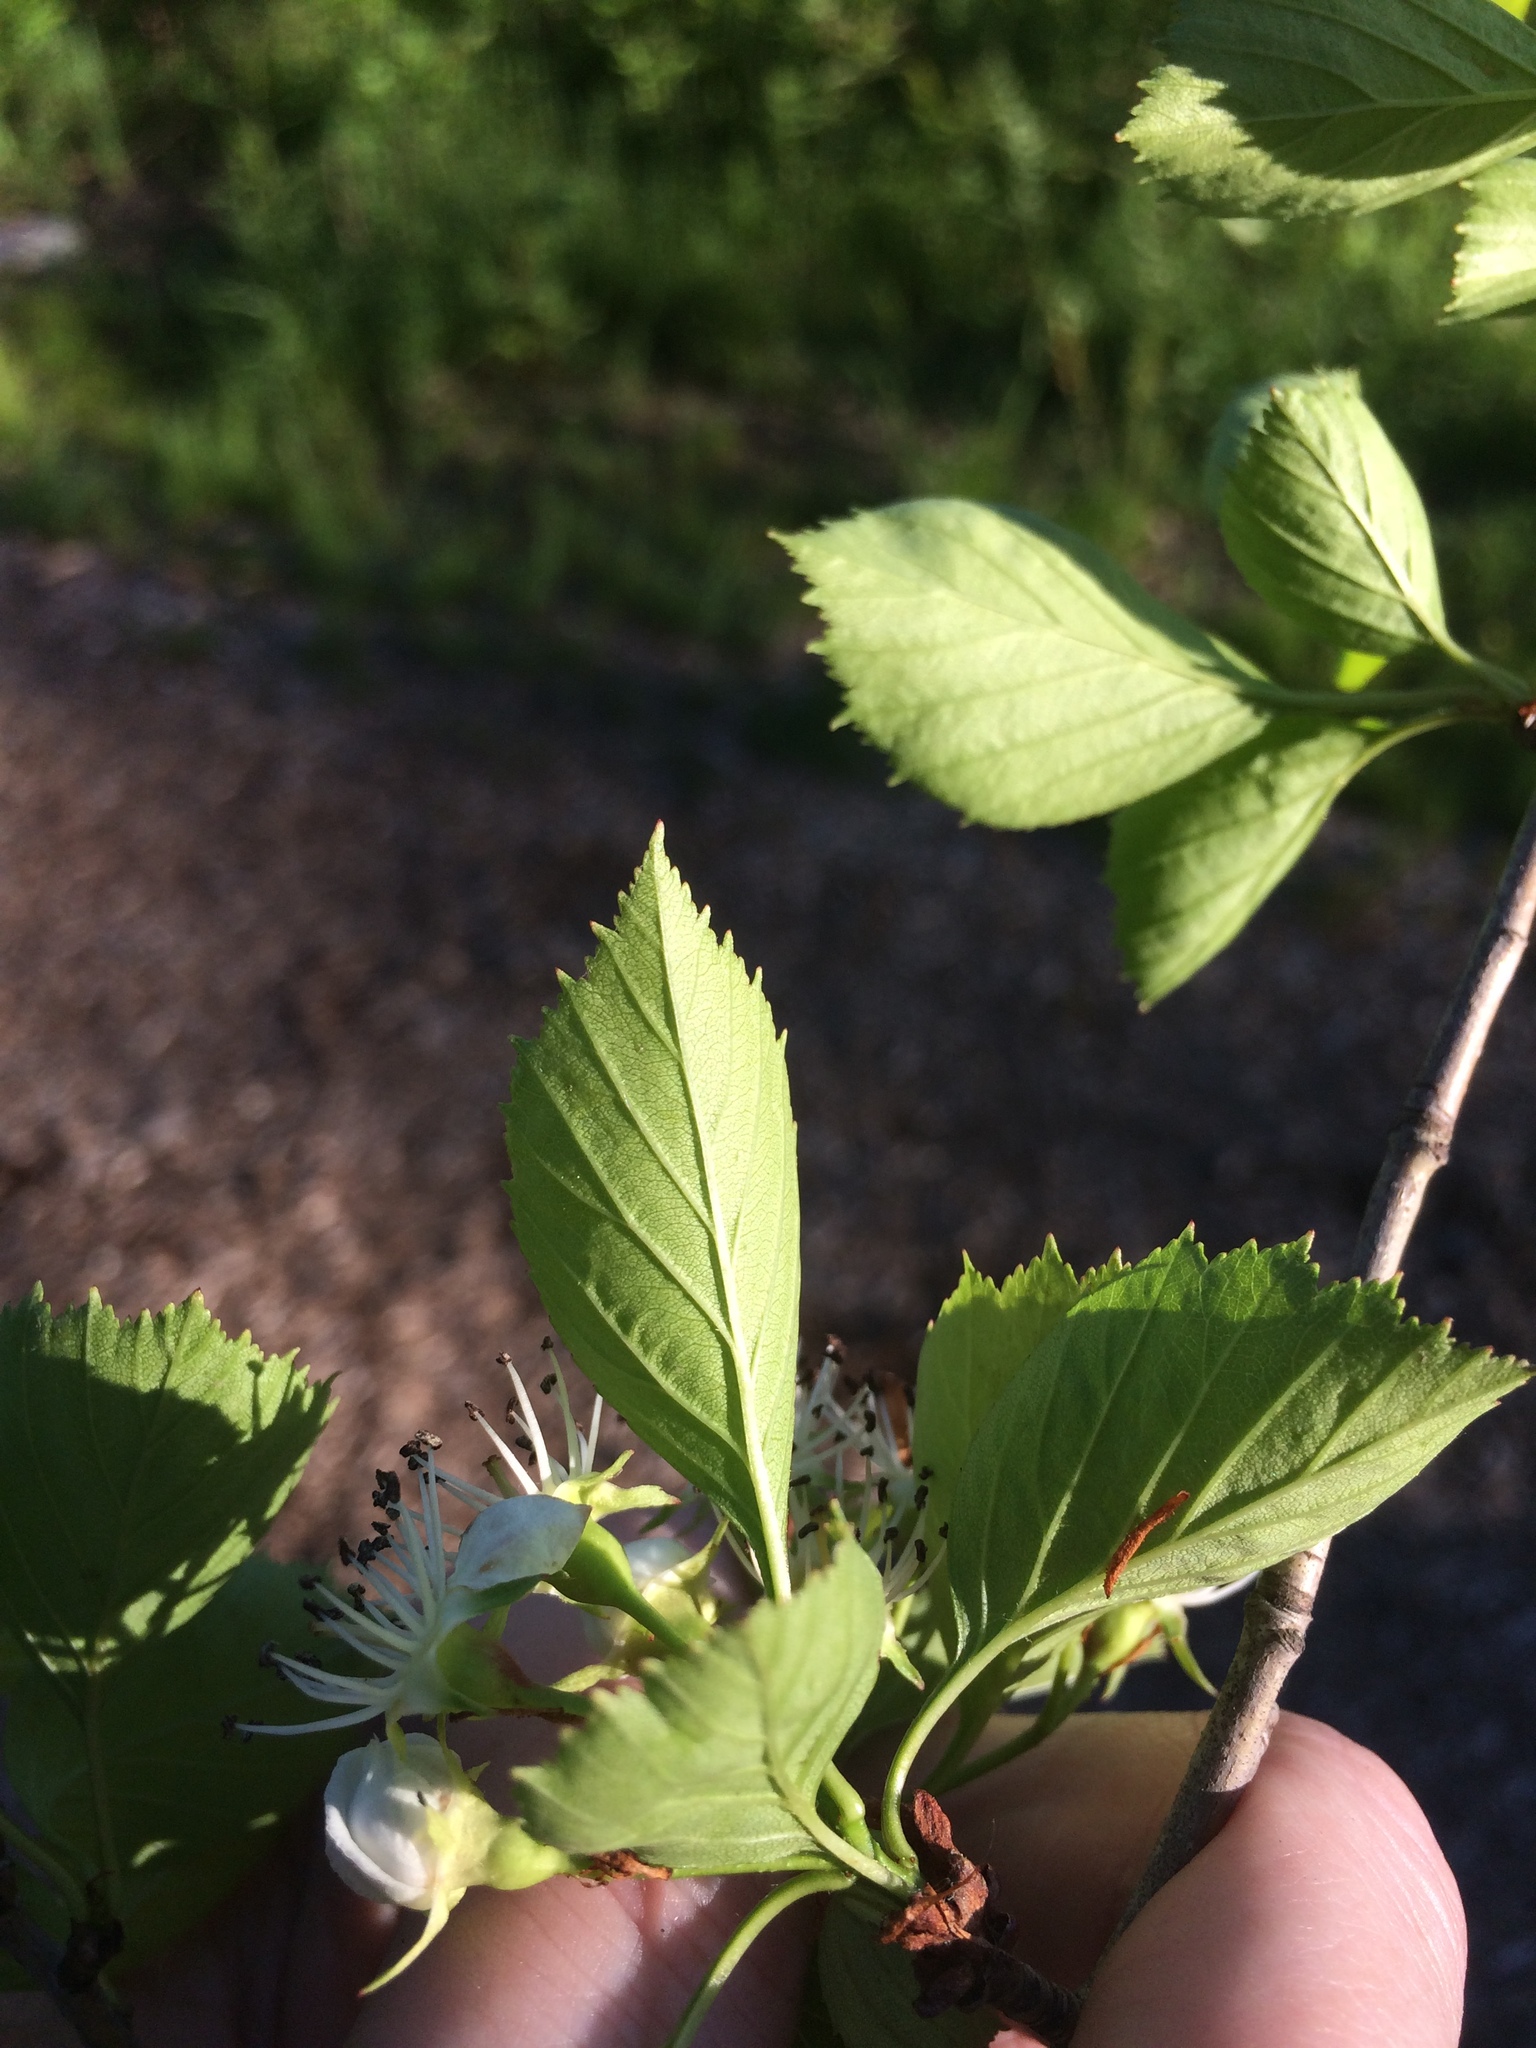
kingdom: Plantae
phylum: Tracheophyta
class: Magnoliopsida
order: Rosales
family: Rosaceae
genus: Crataegus
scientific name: Crataegus suborbiculata
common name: Caughnawaga hawthorn
